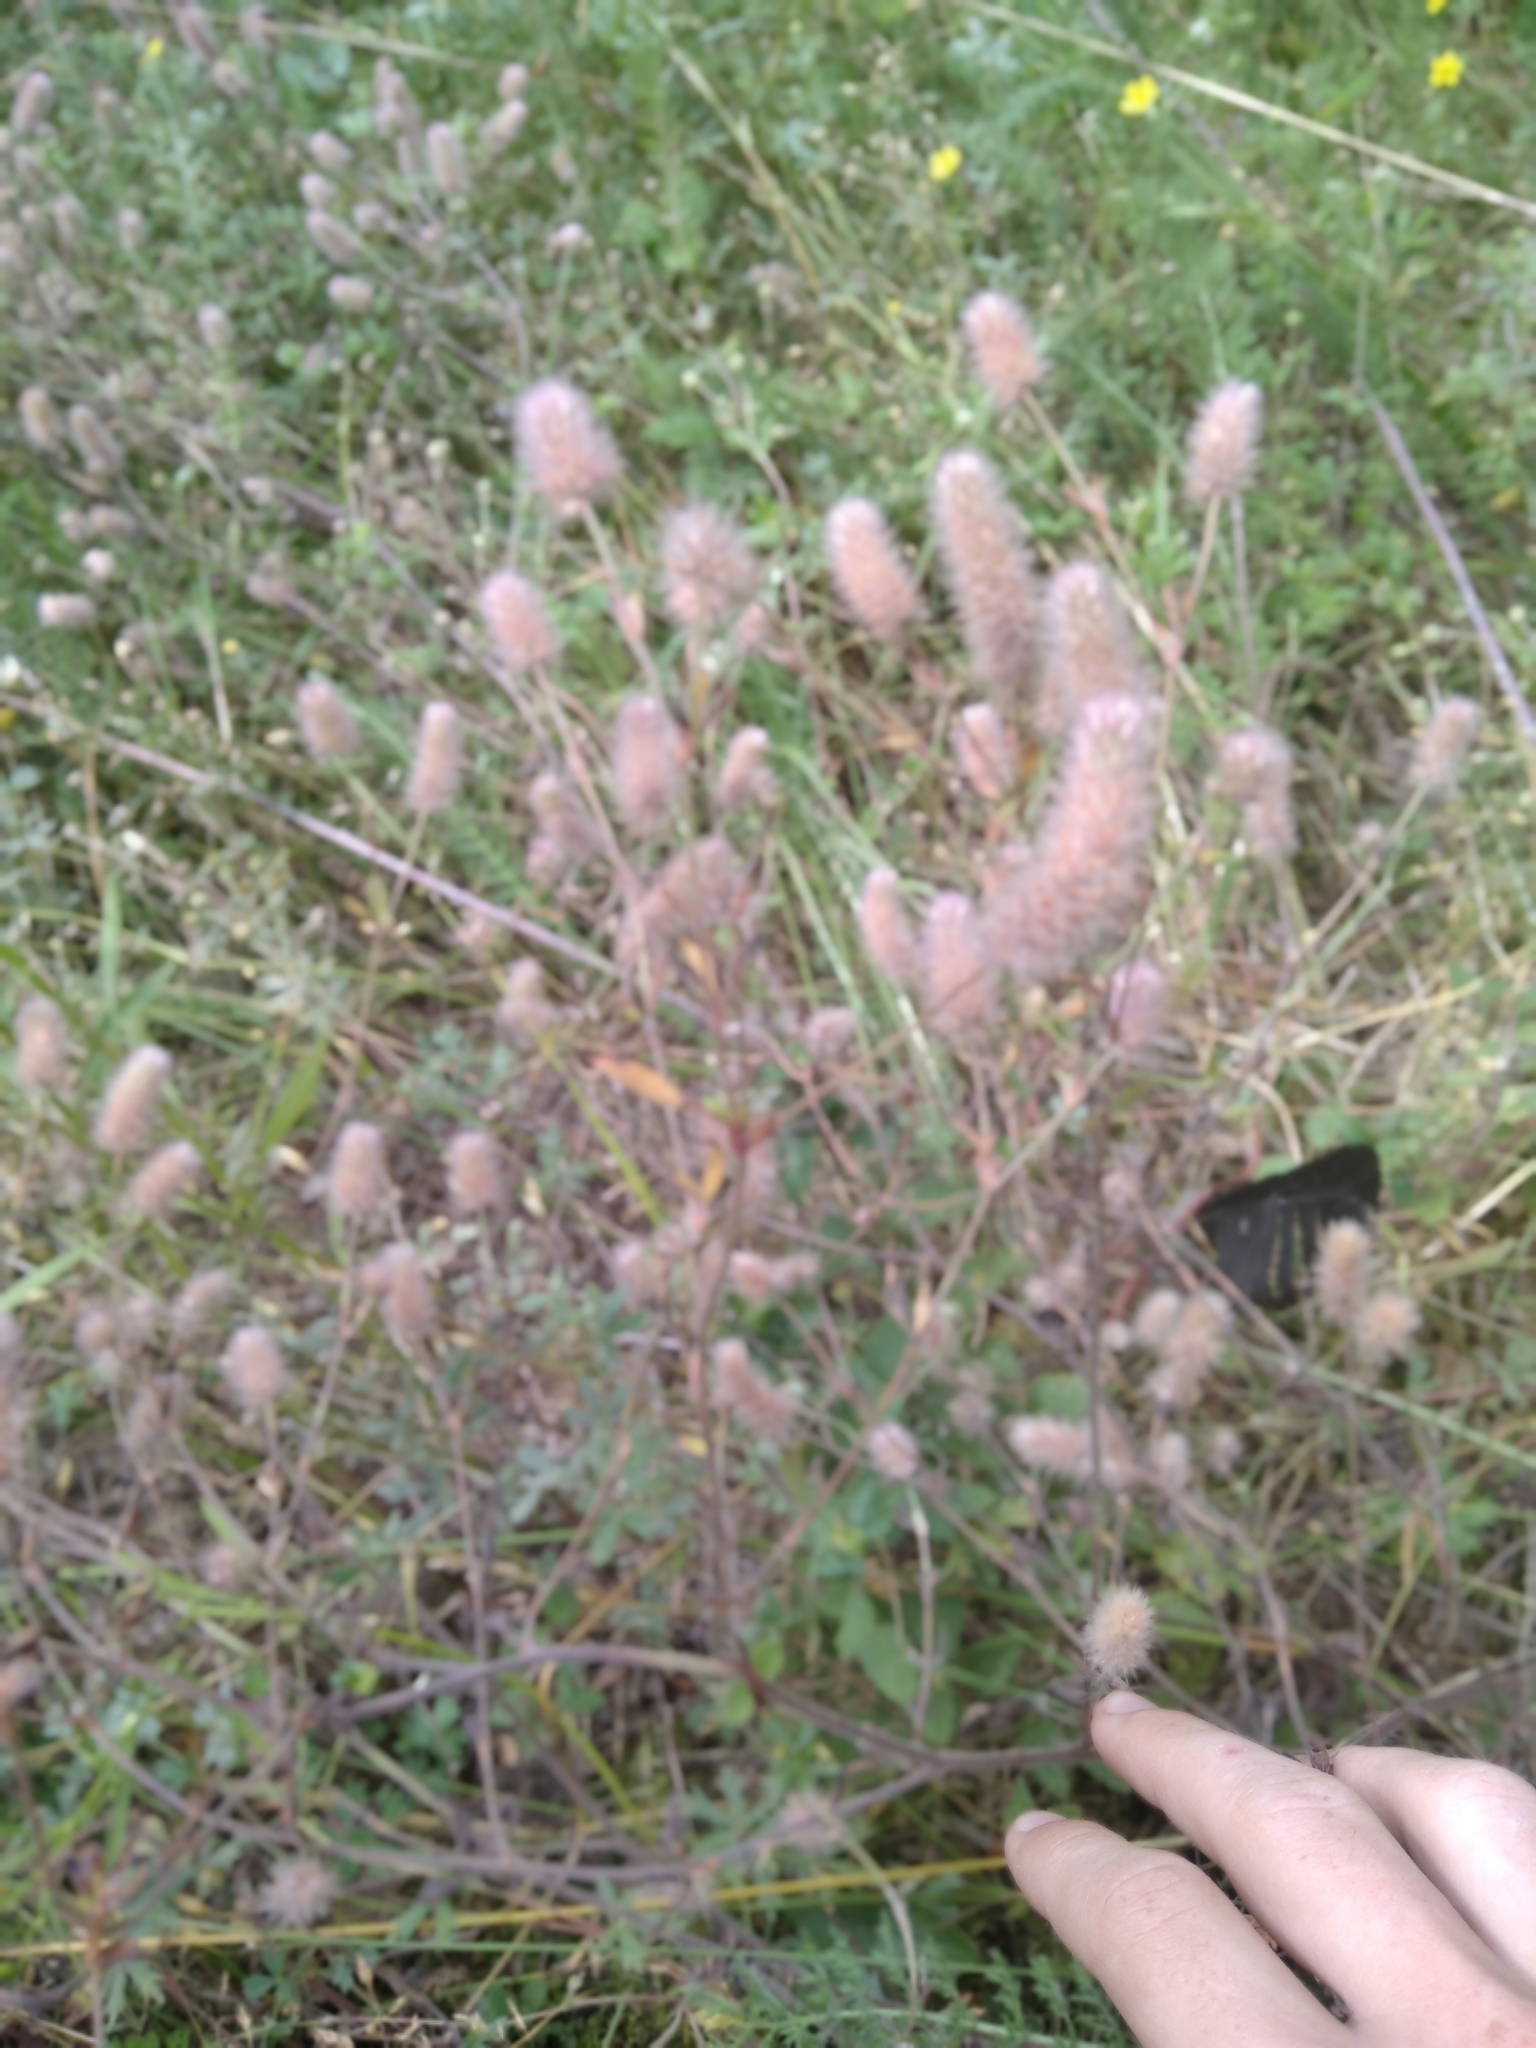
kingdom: Plantae
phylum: Tracheophyta
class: Magnoliopsida
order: Fabales
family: Fabaceae
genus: Trifolium
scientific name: Trifolium arvense
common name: Hare's-foot clover
